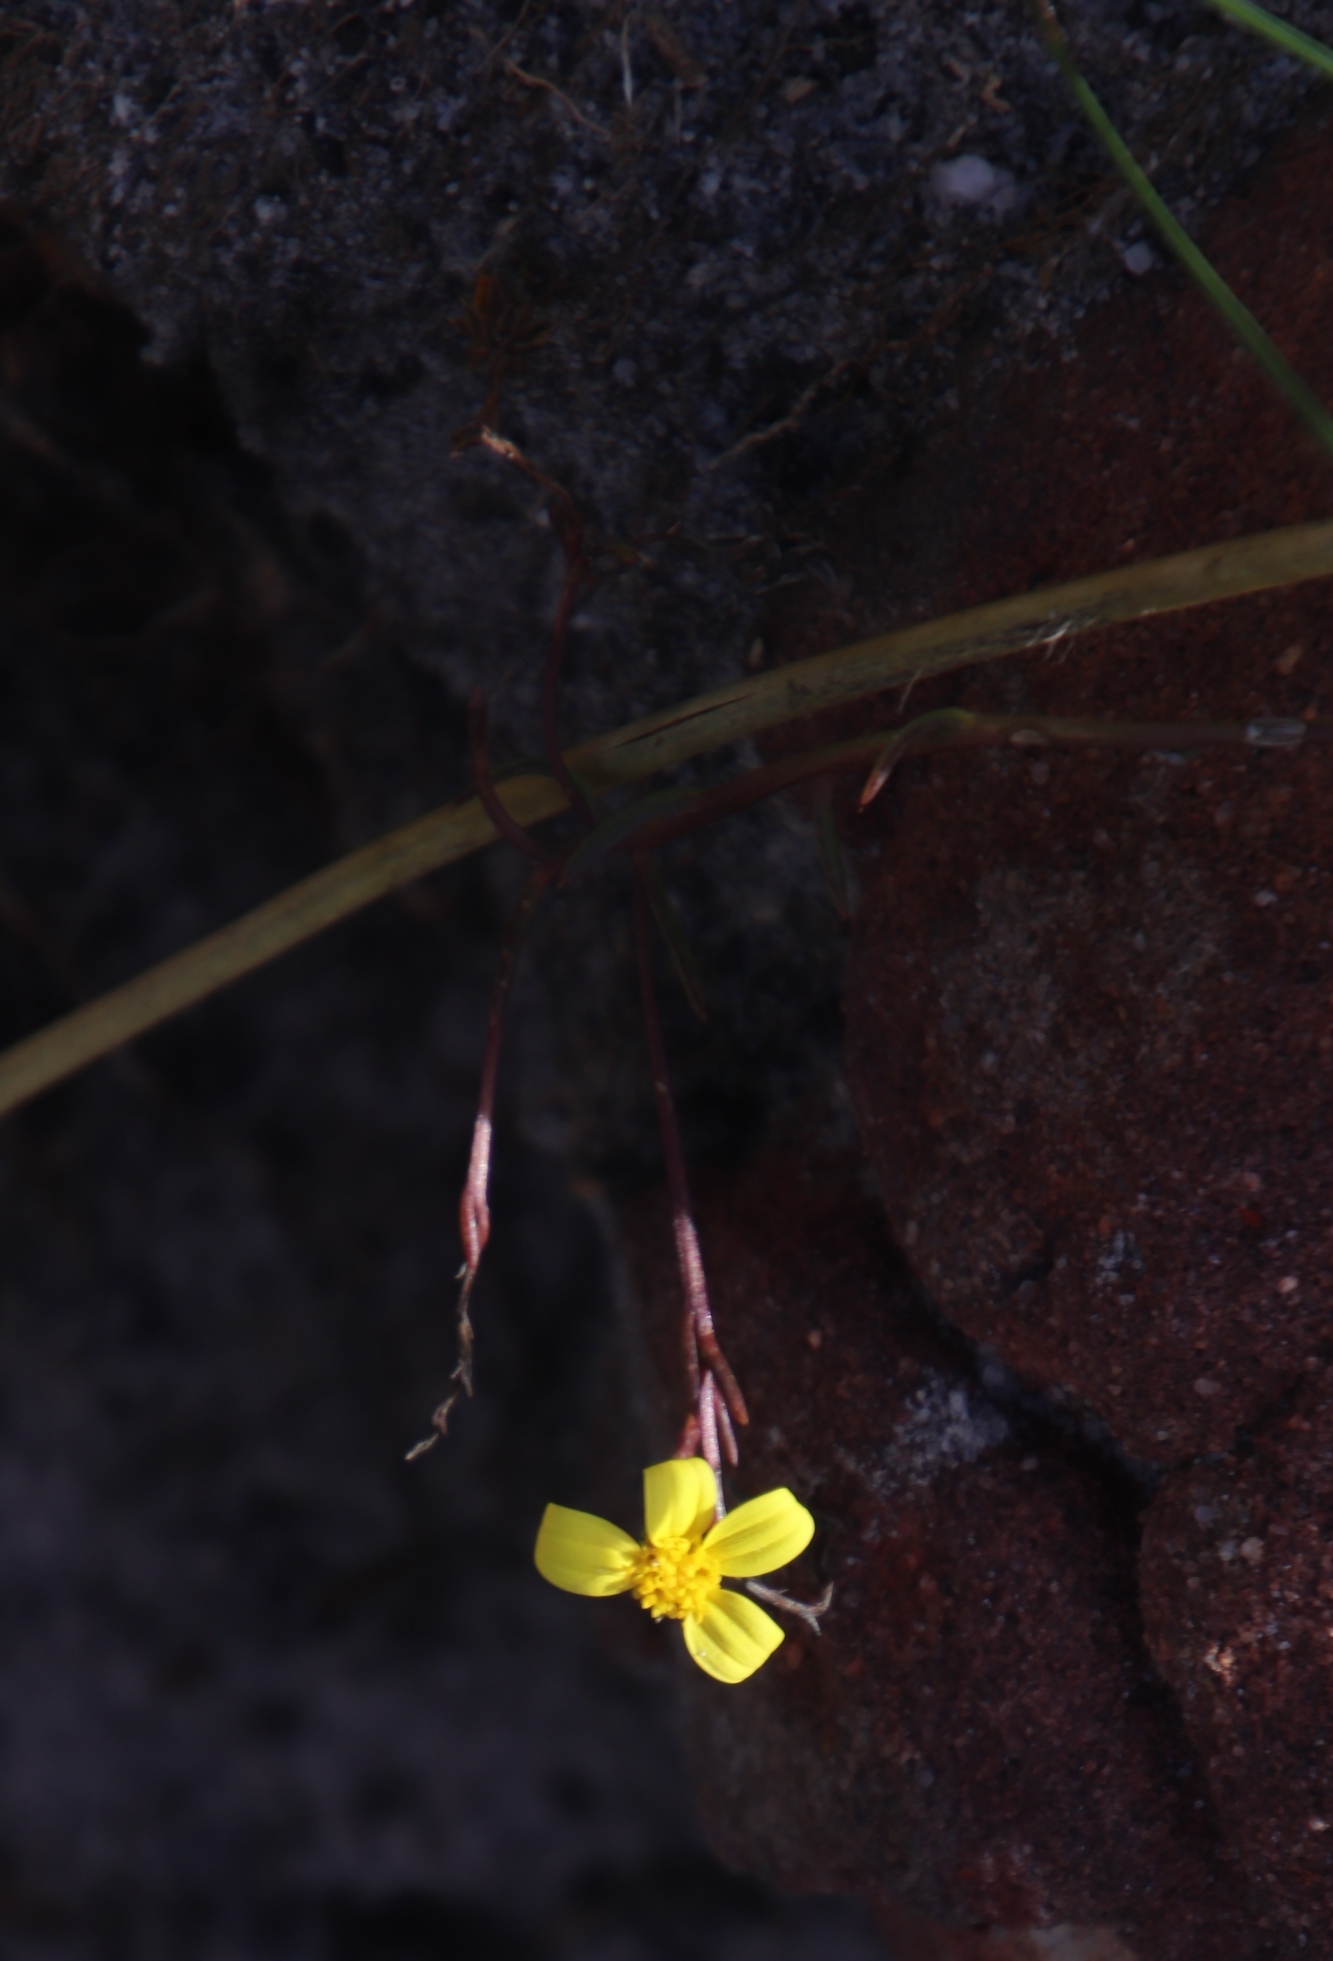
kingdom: Plantae
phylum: Tracheophyta
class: Magnoliopsida
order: Asterales
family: Asteraceae
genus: Osteospermum
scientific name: Osteospermum ciliatum
